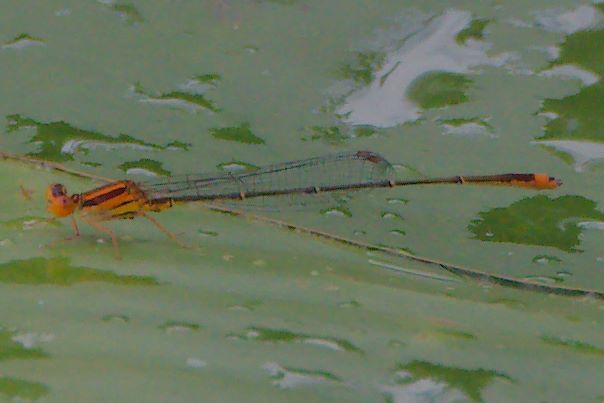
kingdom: Animalia
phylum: Arthropoda
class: Insecta
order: Odonata
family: Coenagrionidae
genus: Enallagma
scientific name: Enallagma pollutum
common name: Florida bluet
